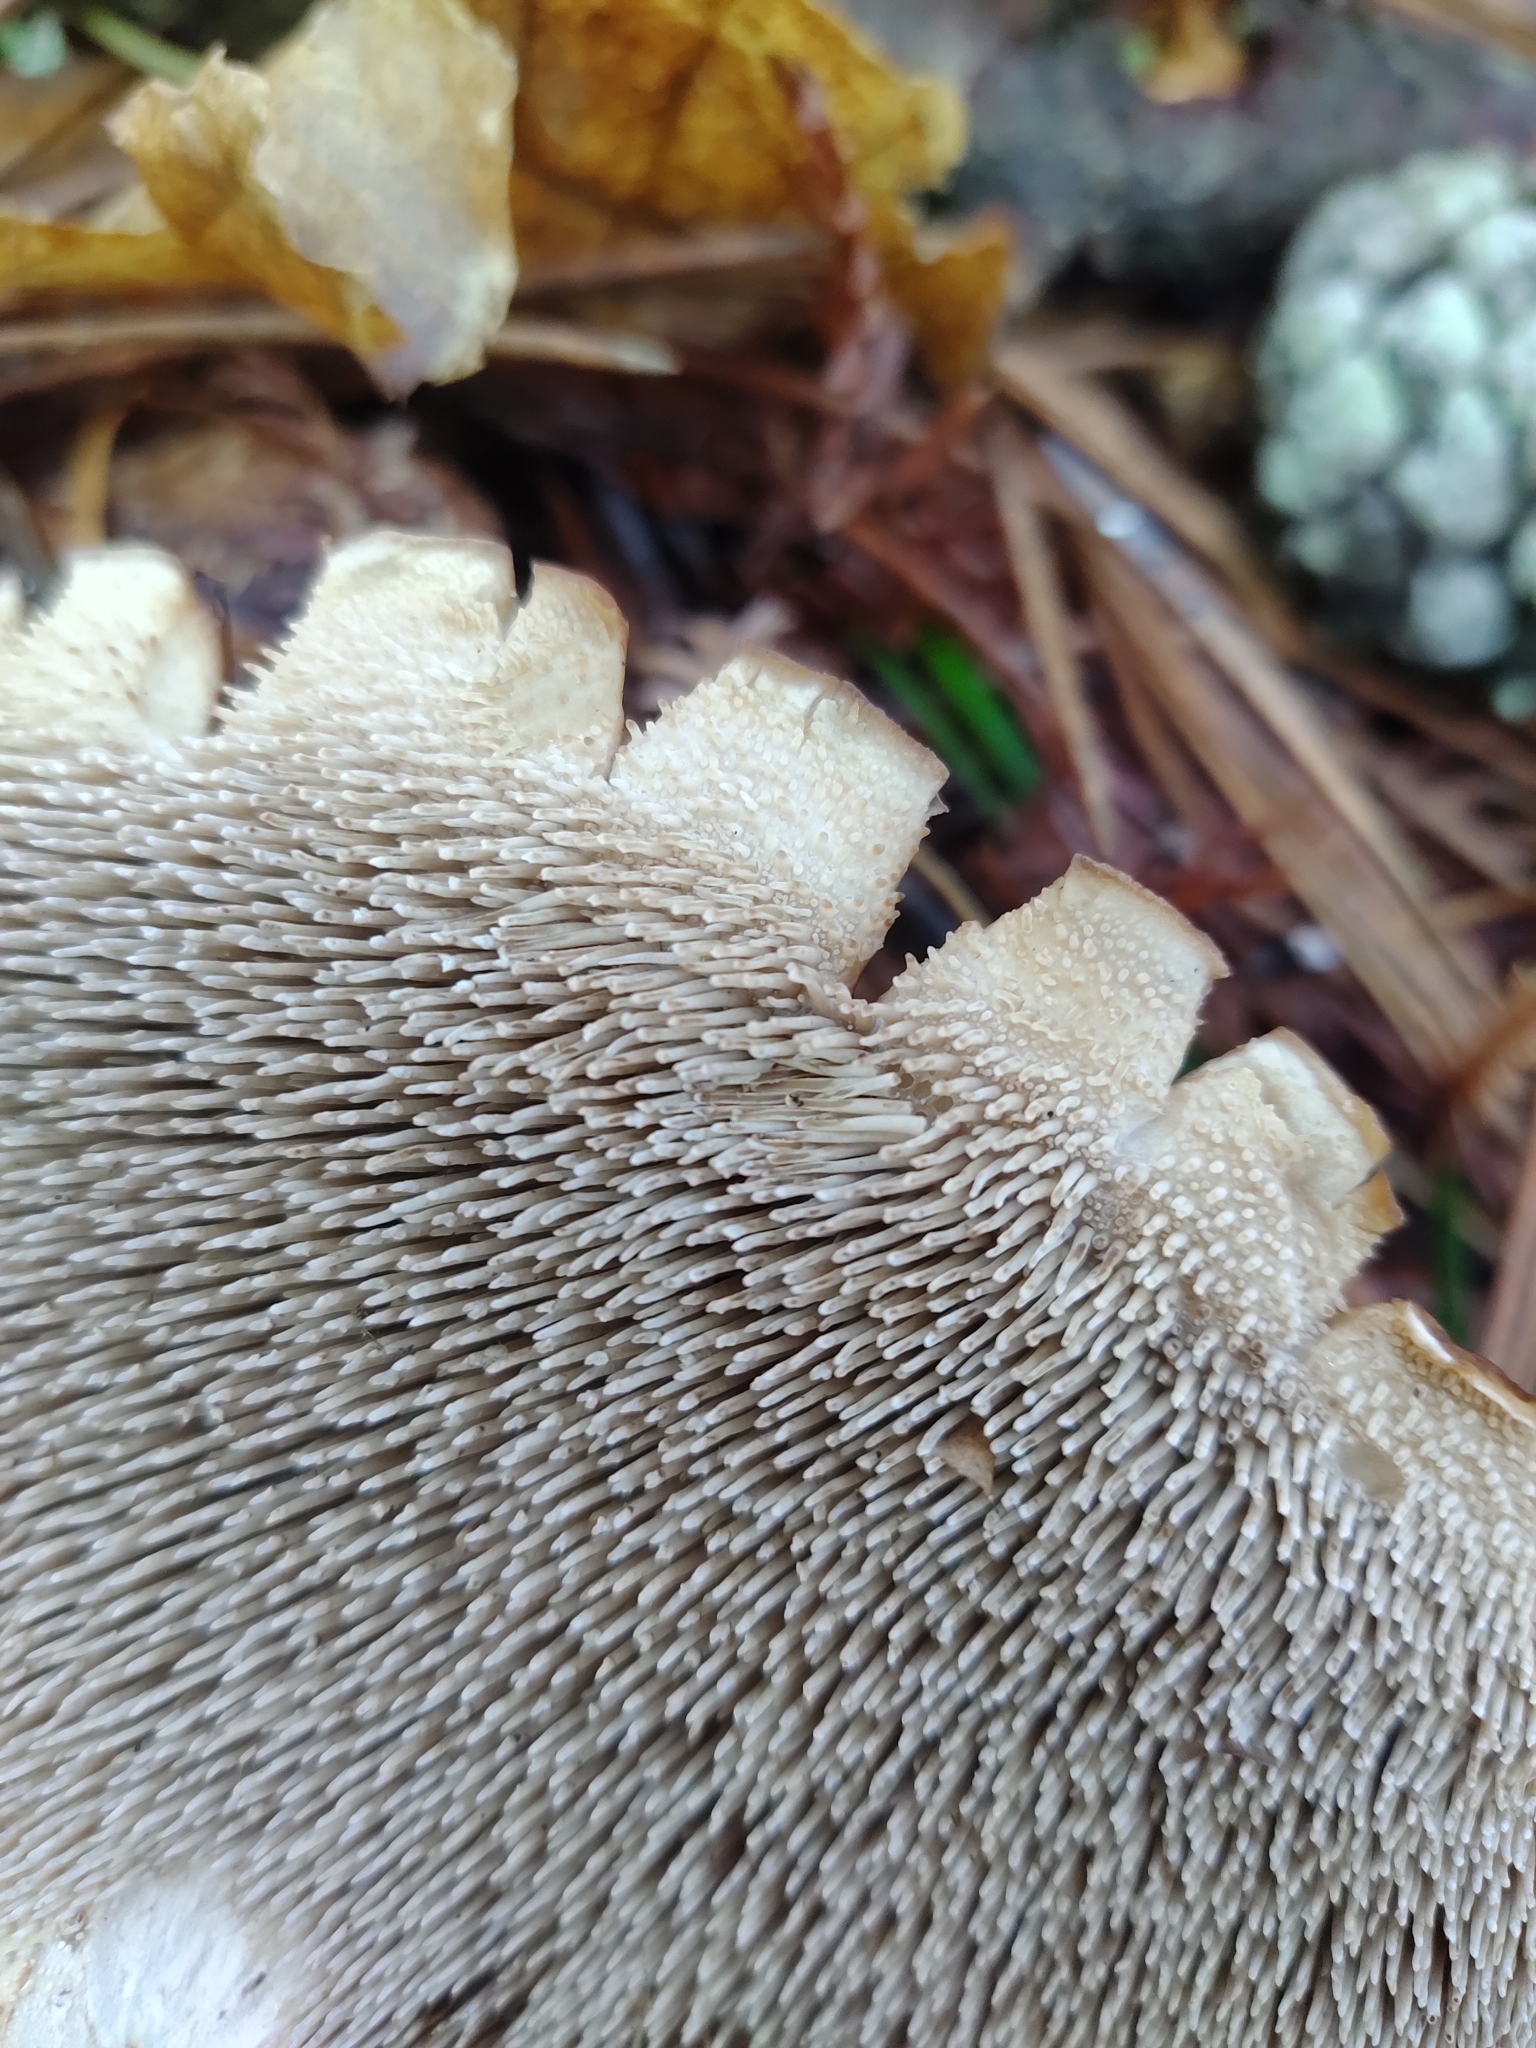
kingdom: Fungi
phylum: Basidiomycota
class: Agaricomycetes
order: Thelephorales
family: Bankeraceae
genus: Sarcodon
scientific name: Sarcodon squamosus
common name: Scaly tooth
